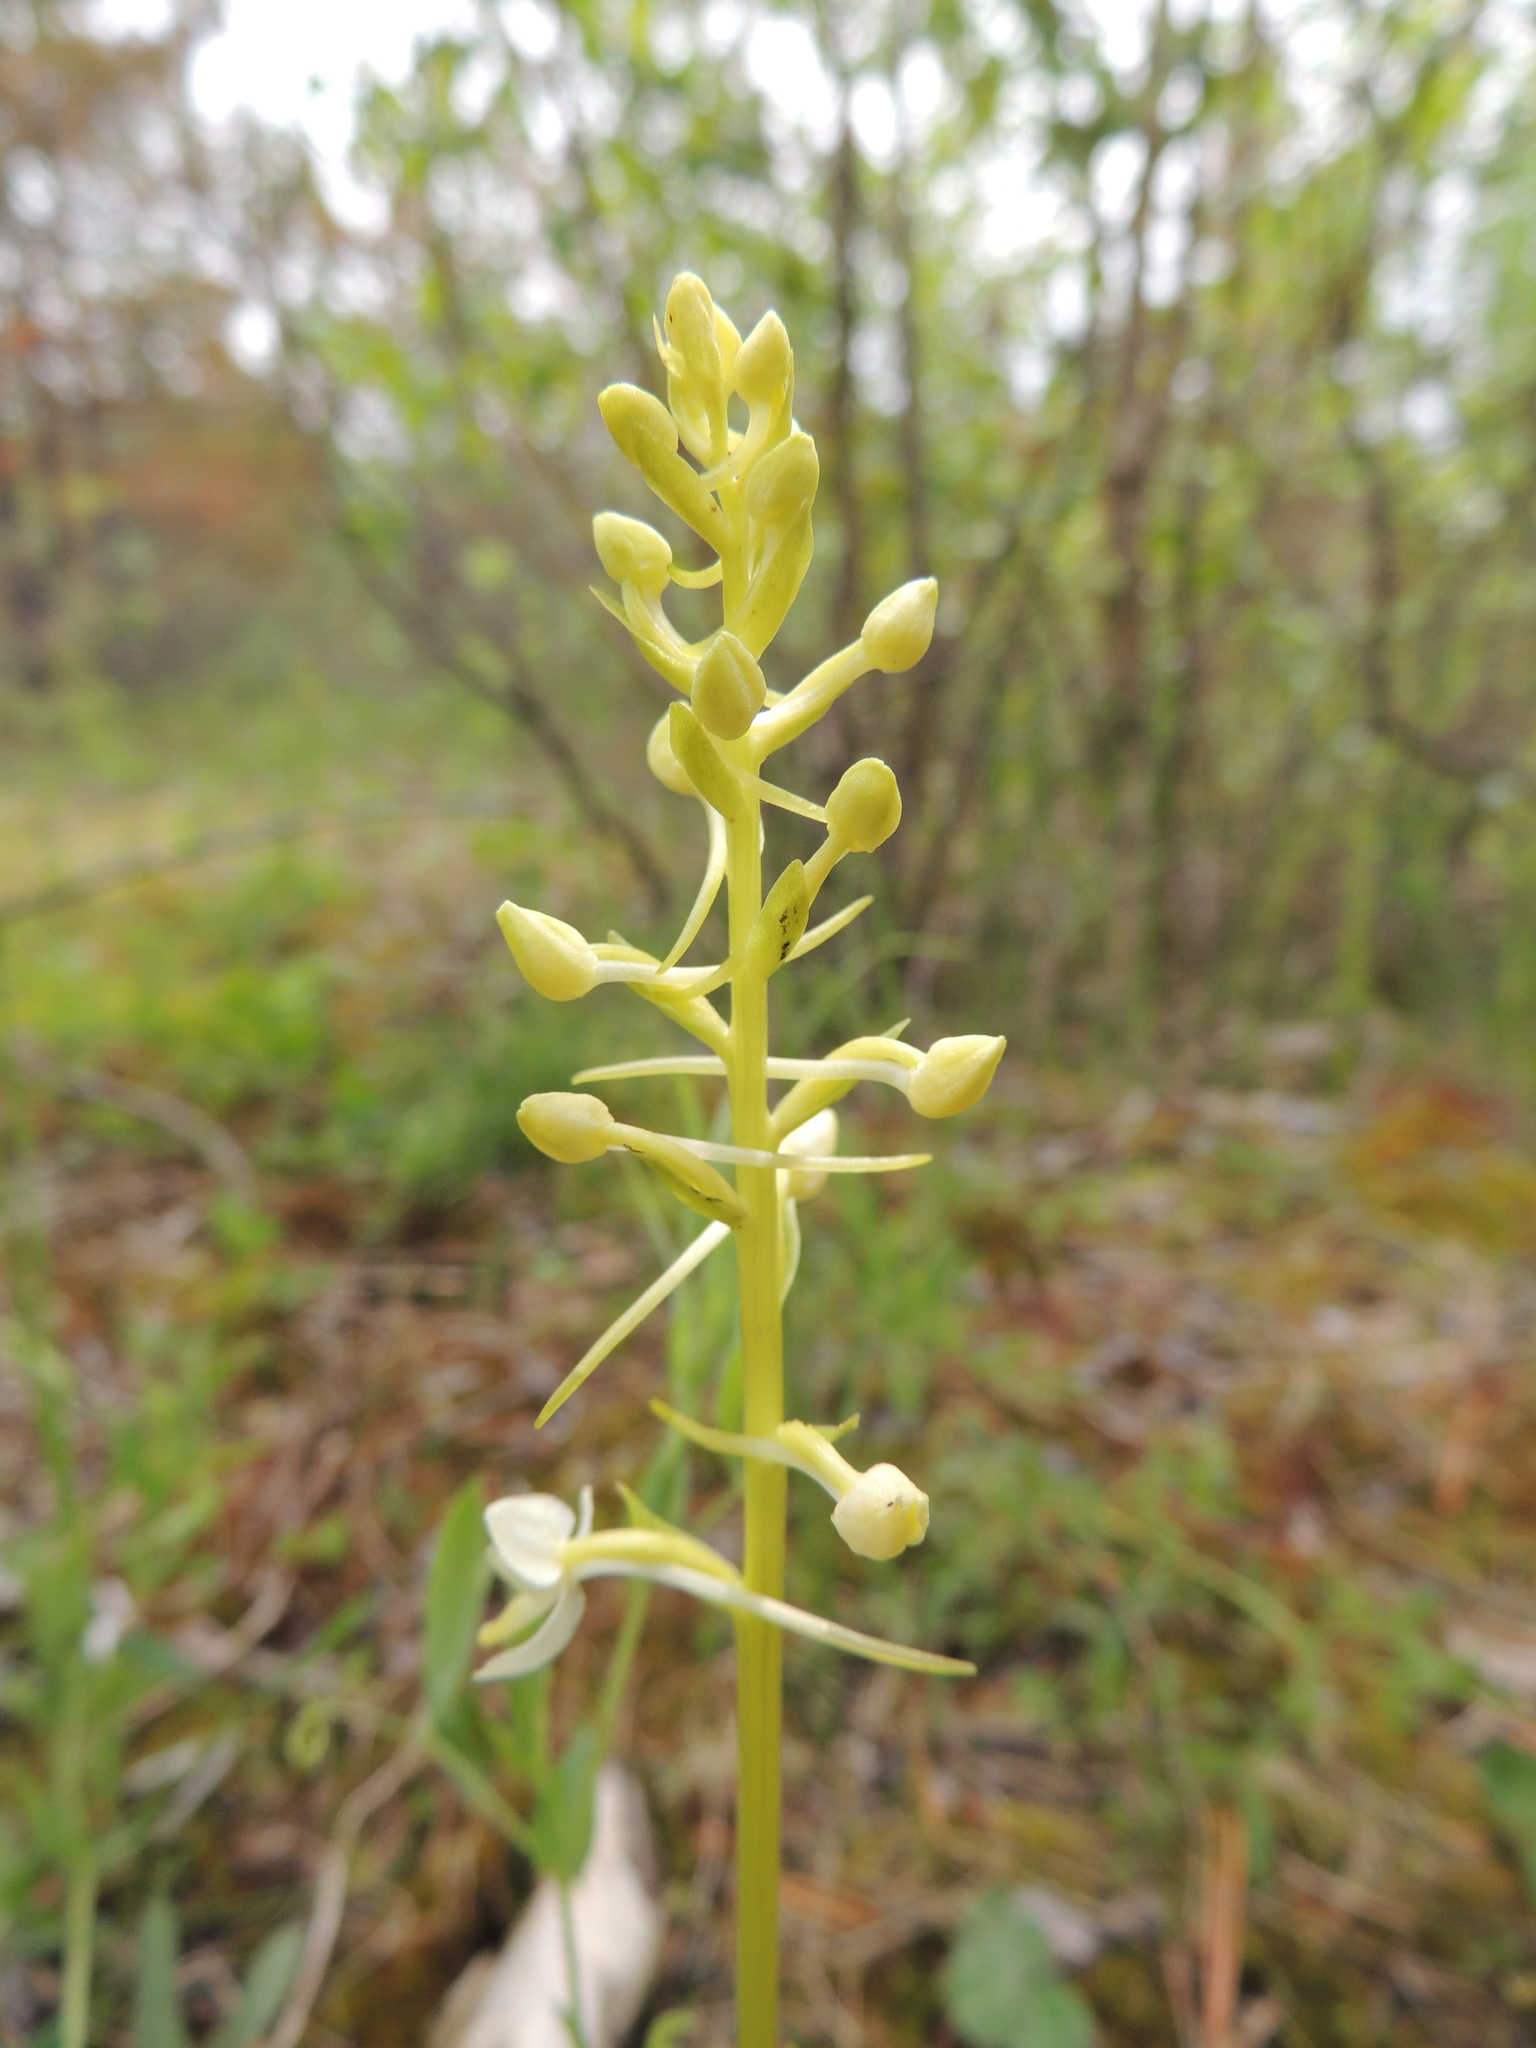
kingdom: Plantae
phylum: Tracheophyta
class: Liliopsida
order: Asparagales
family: Orchidaceae
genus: Platanthera
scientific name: Platanthera bifolia
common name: Lesser butterfly-orchid
